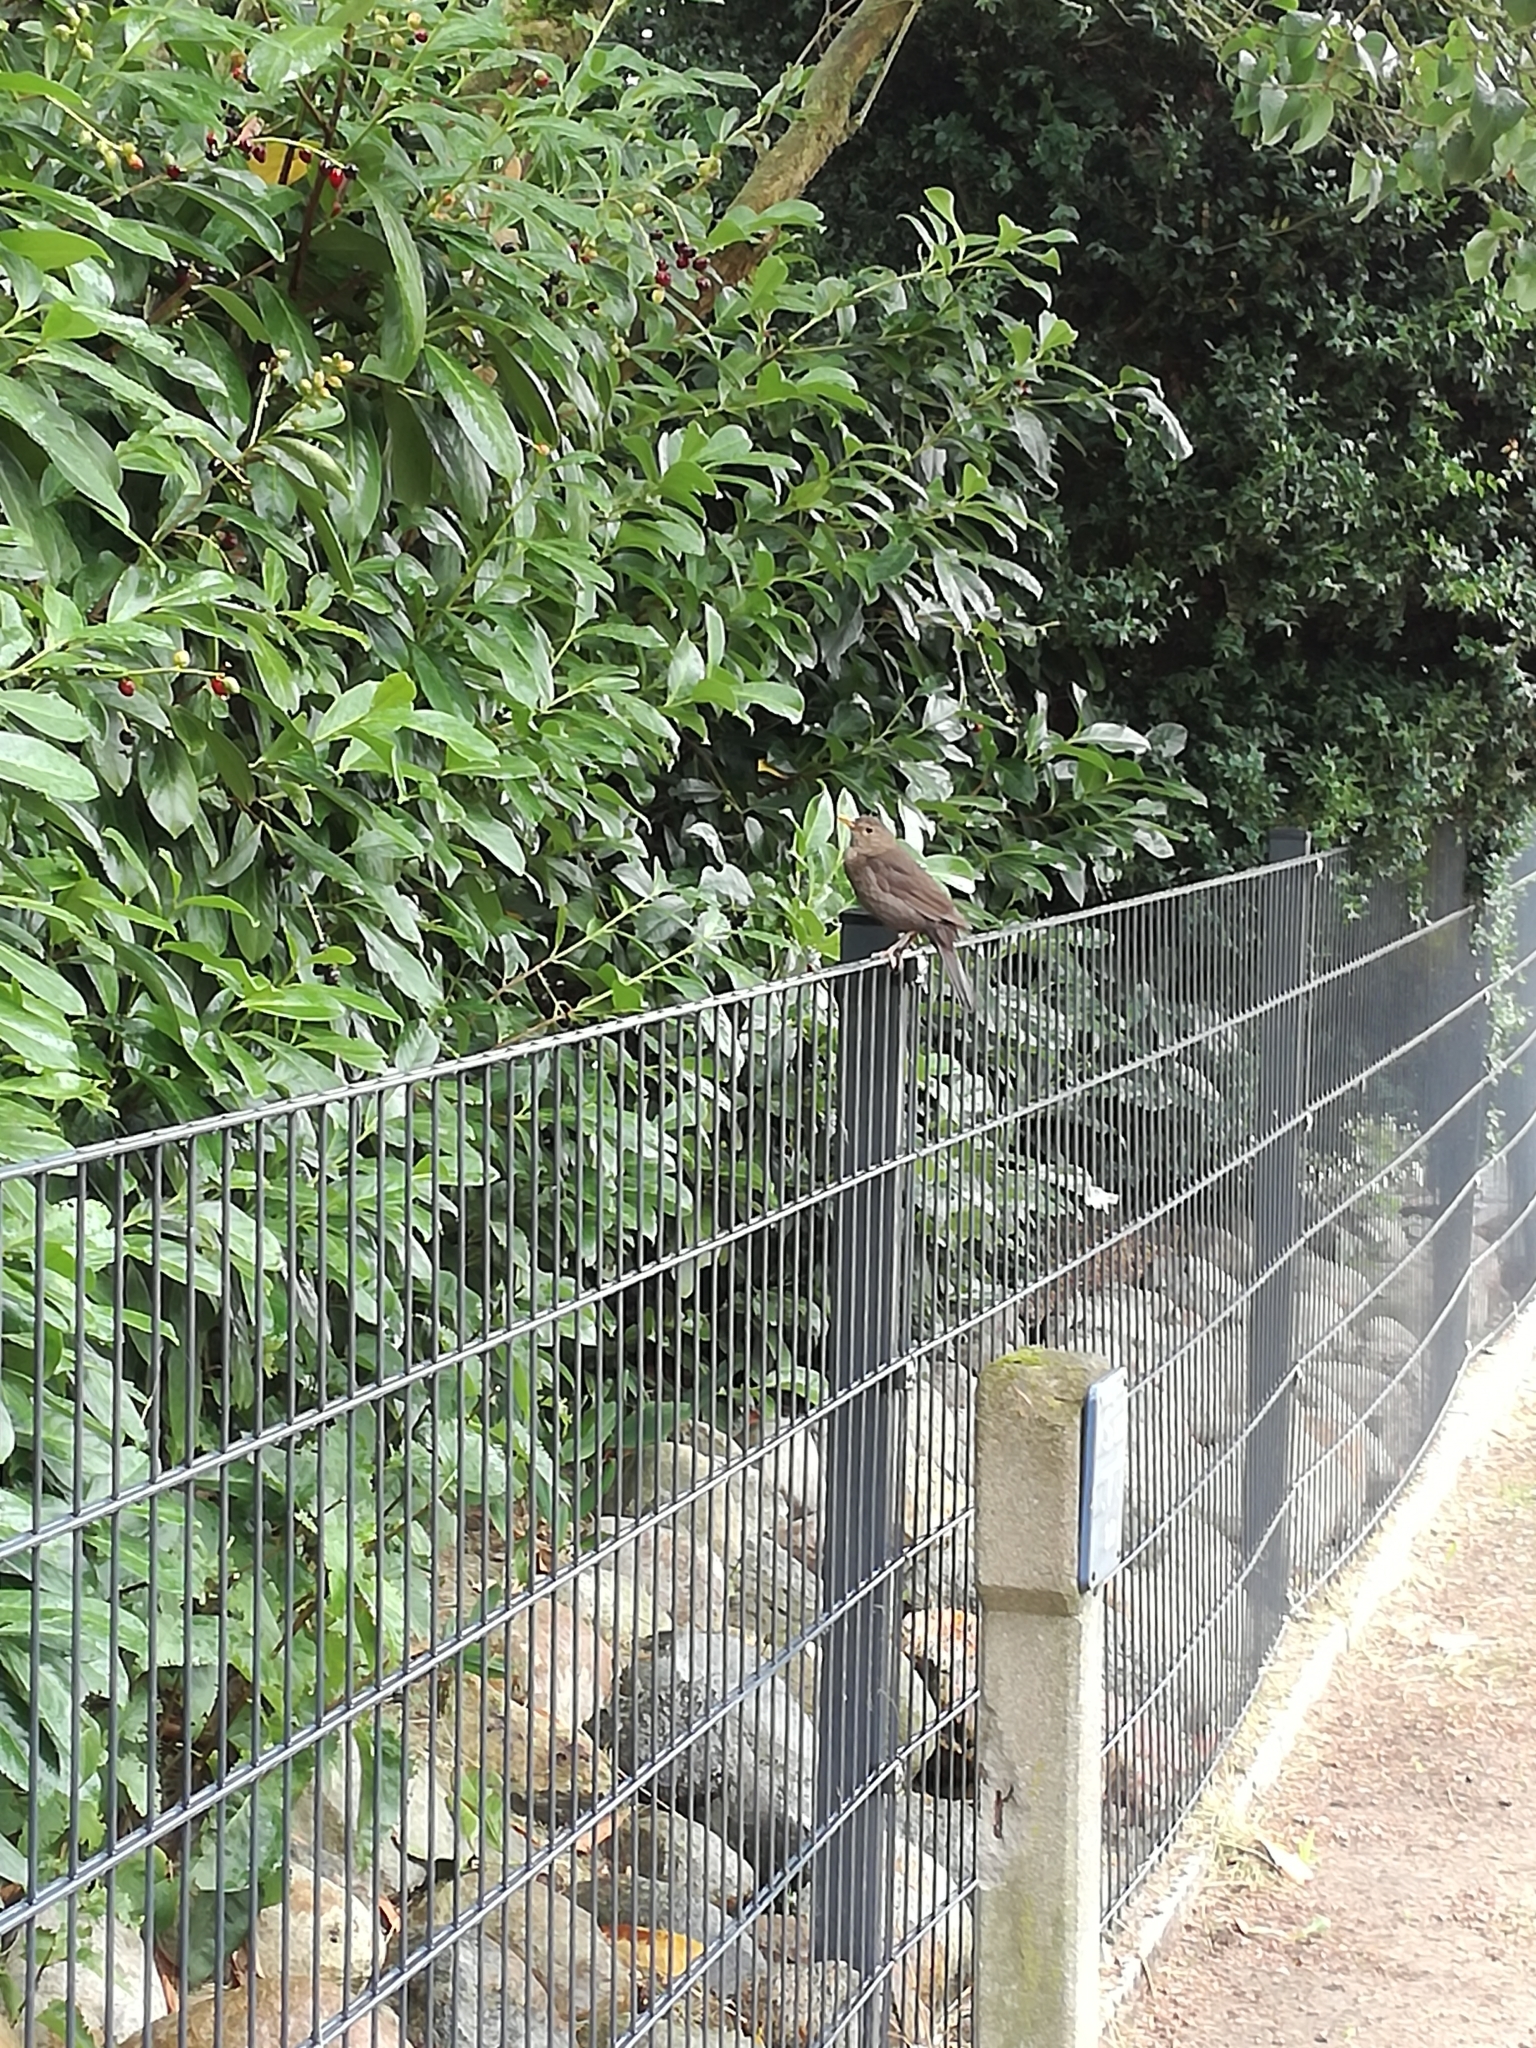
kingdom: Animalia
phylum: Chordata
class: Aves
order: Passeriformes
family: Turdidae
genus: Turdus
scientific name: Turdus merula
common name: Common blackbird
